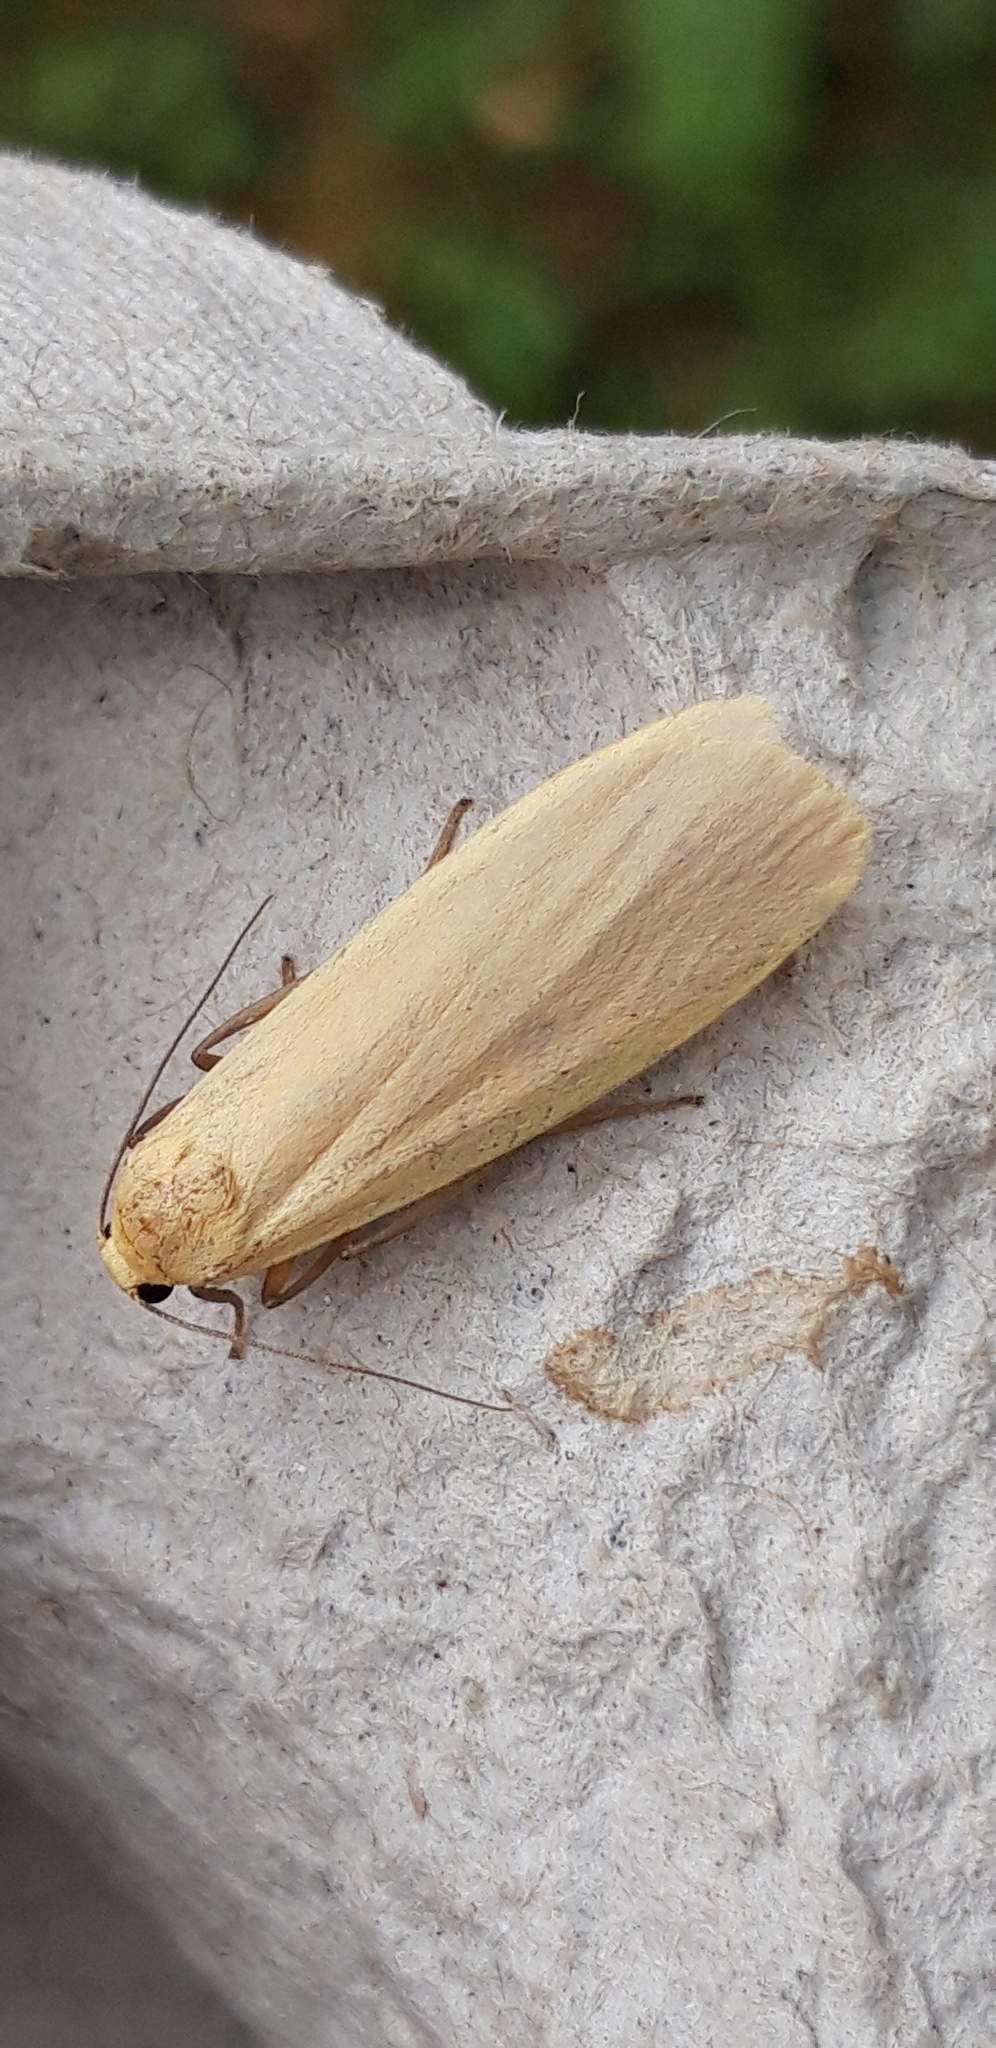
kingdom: Animalia
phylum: Arthropoda
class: Insecta
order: Lepidoptera
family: Erebidae
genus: Wittia
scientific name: Wittia sororcula
